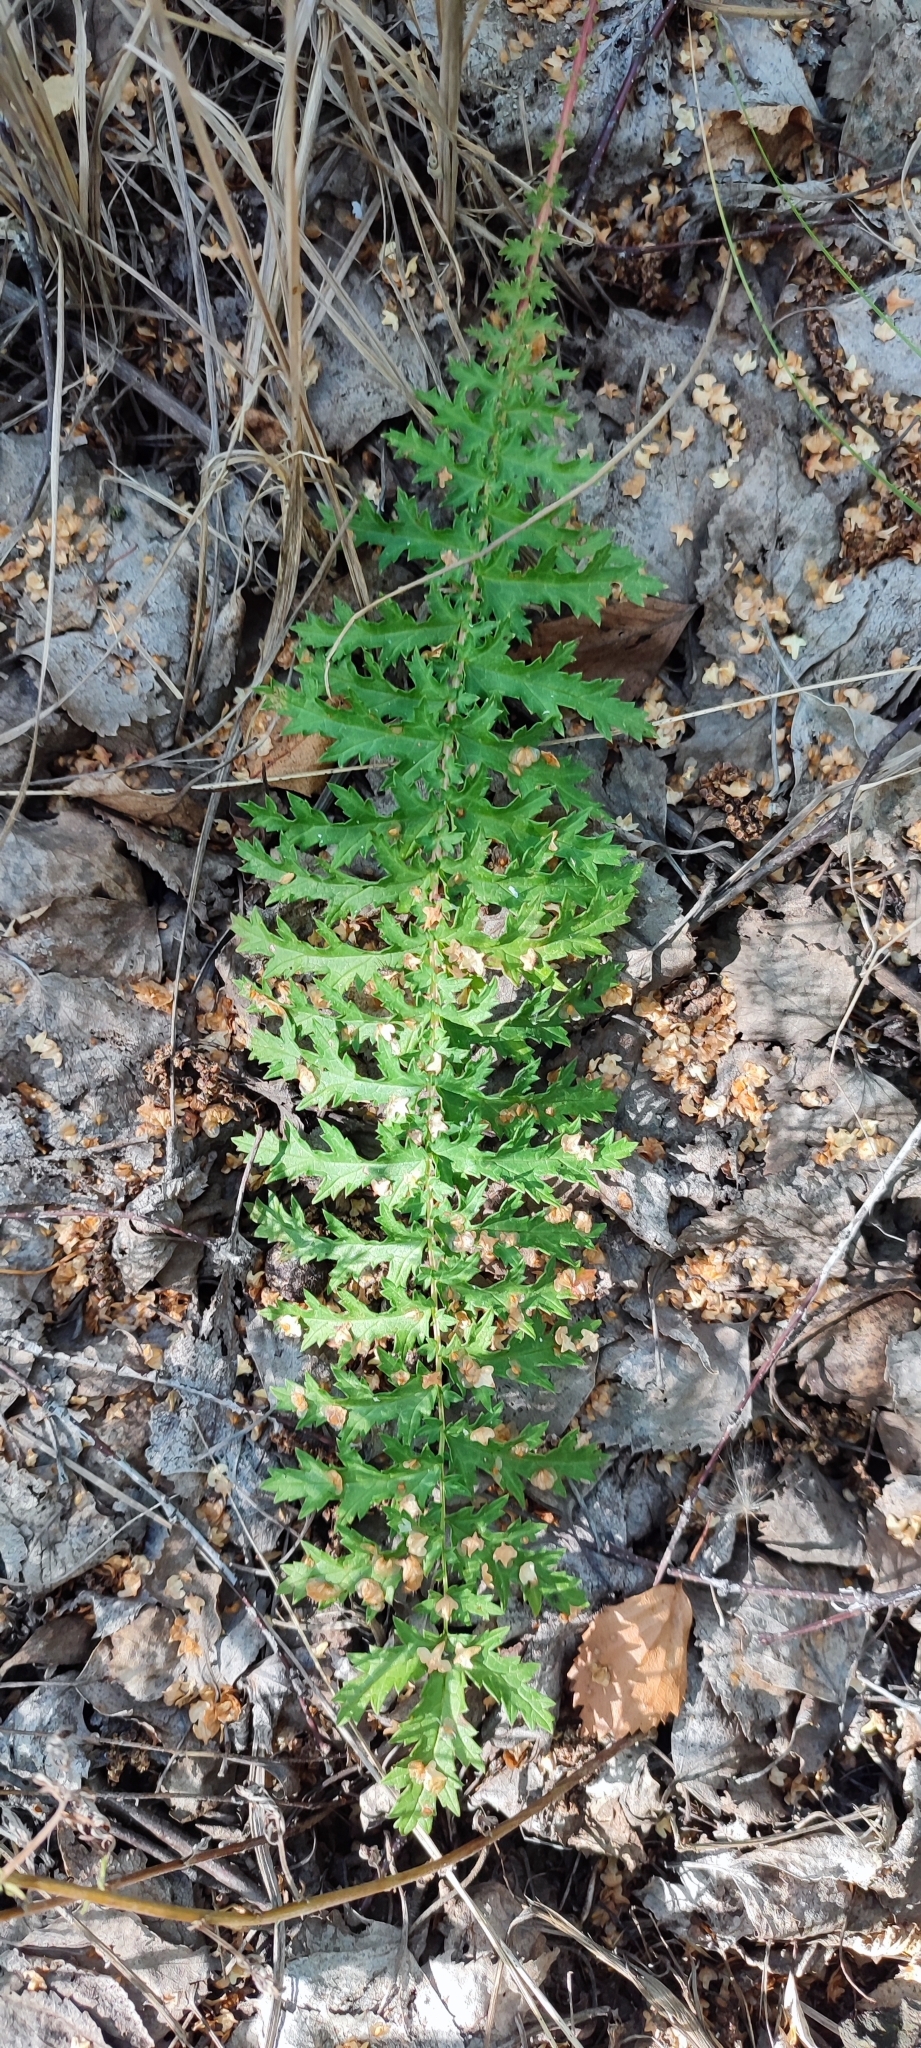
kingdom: Plantae
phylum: Tracheophyta
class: Magnoliopsida
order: Rosales
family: Rosaceae
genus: Filipendula
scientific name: Filipendula vulgaris
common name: Dropwort
